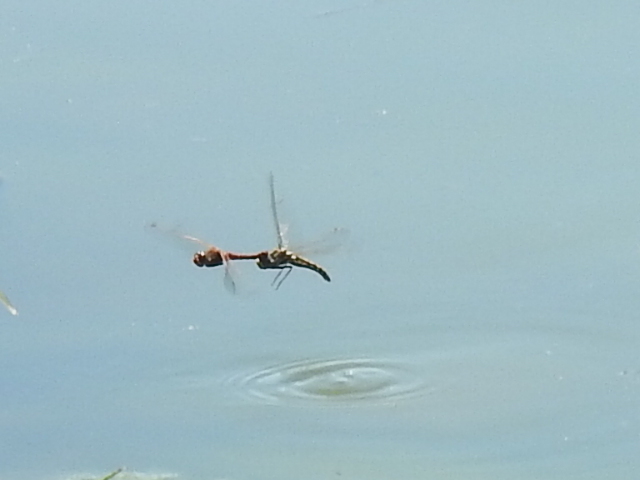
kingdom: Animalia
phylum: Arthropoda
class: Insecta
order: Odonata
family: Libellulidae
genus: Sympetrum
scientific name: Sympetrum corruptum
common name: Variegated meadowhawk
